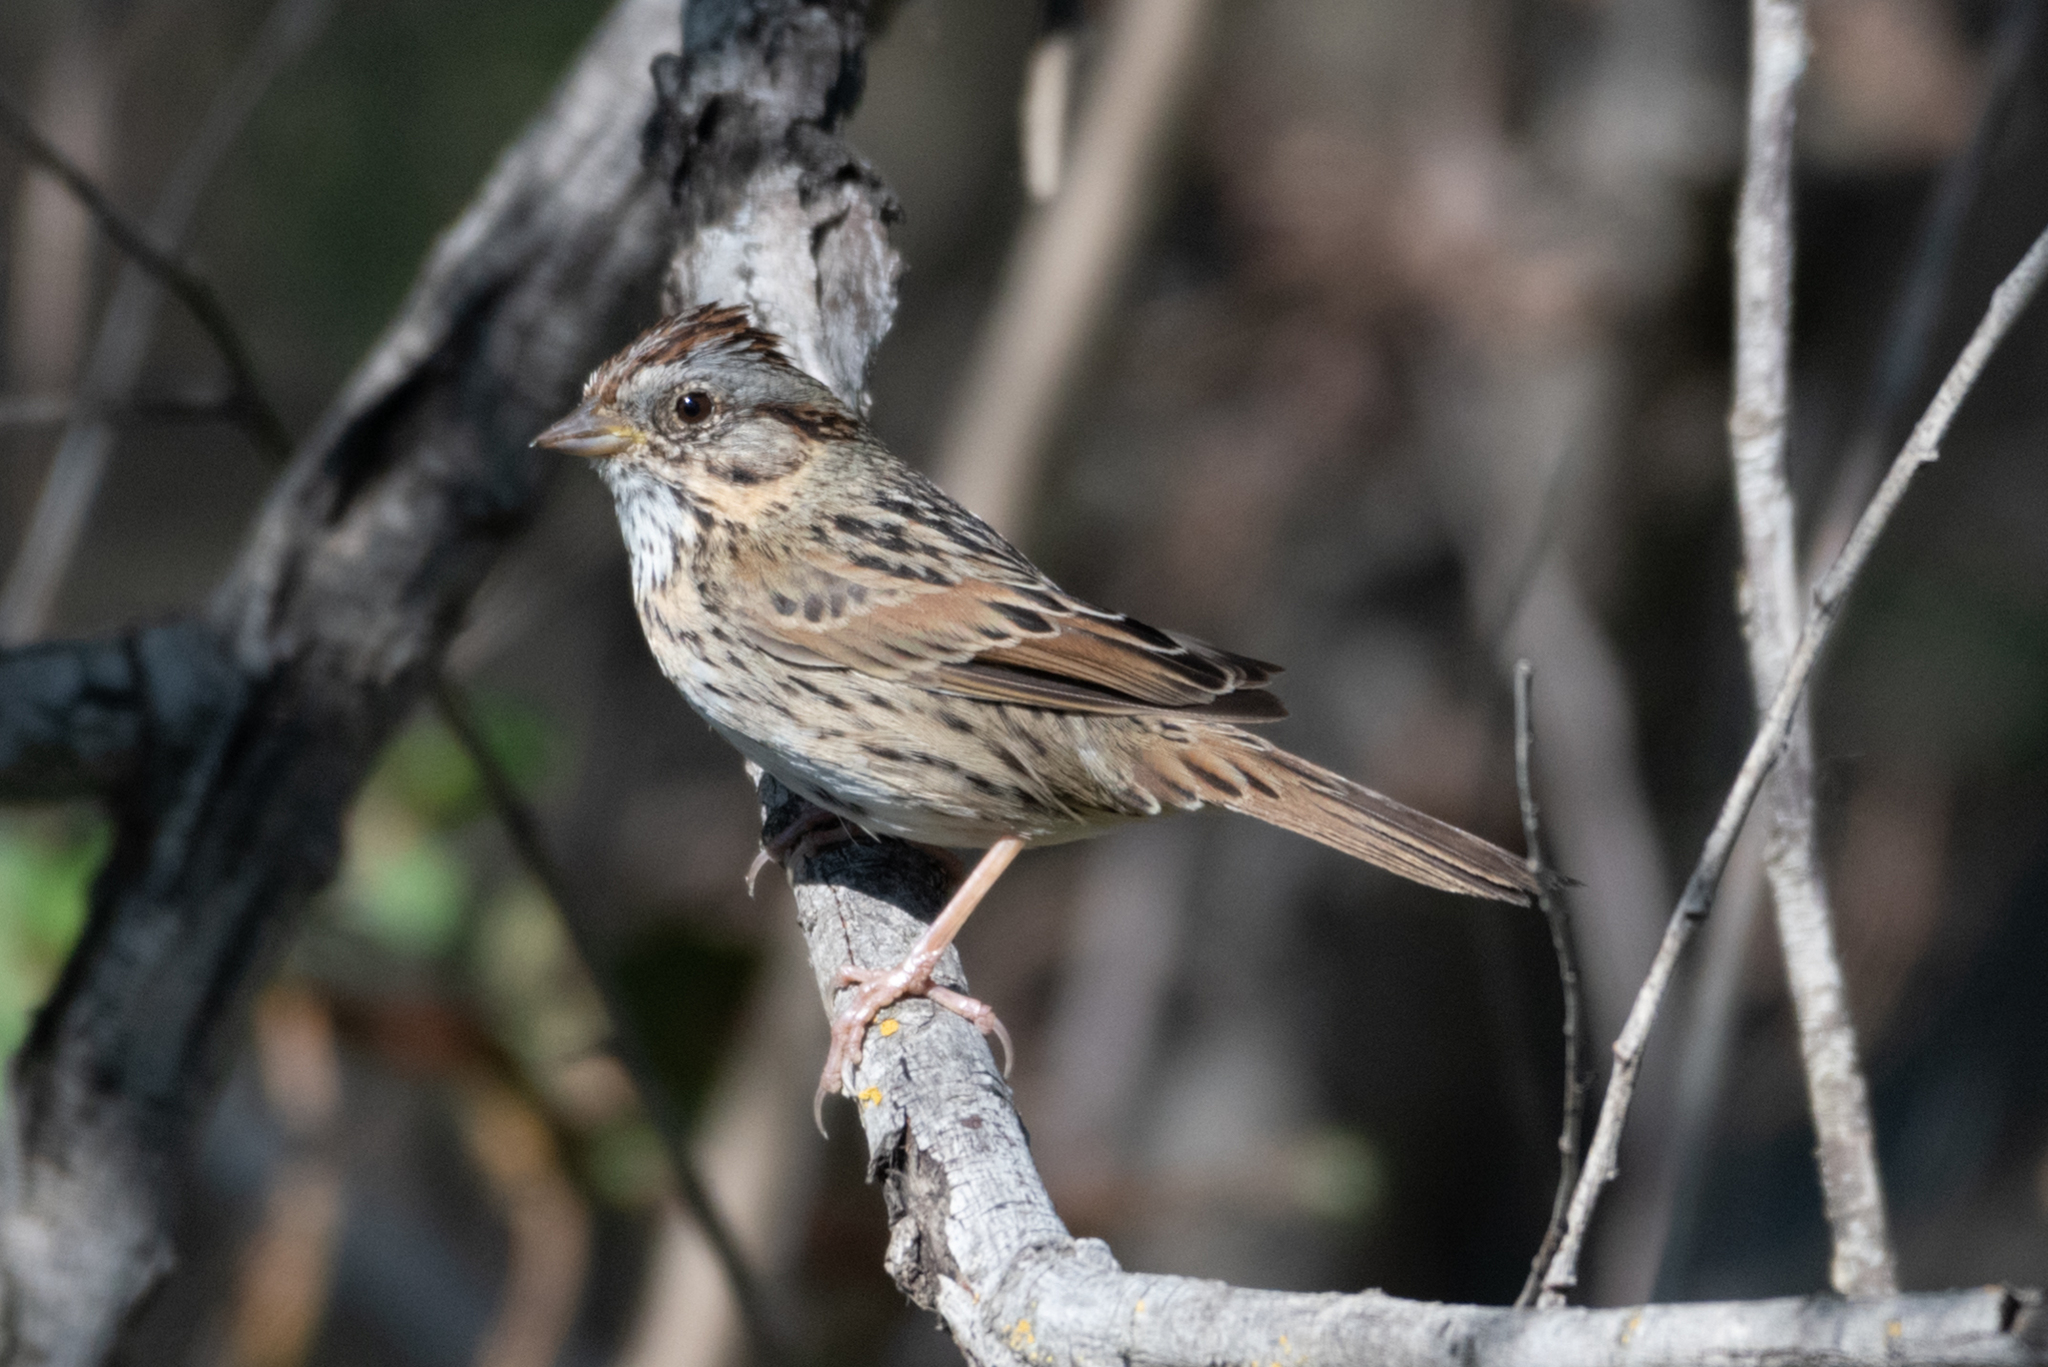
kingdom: Animalia
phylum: Chordata
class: Aves
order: Passeriformes
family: Passerellidae
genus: Melospiza
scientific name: Melospiza lincolnii
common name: Lincoln's sparrow
